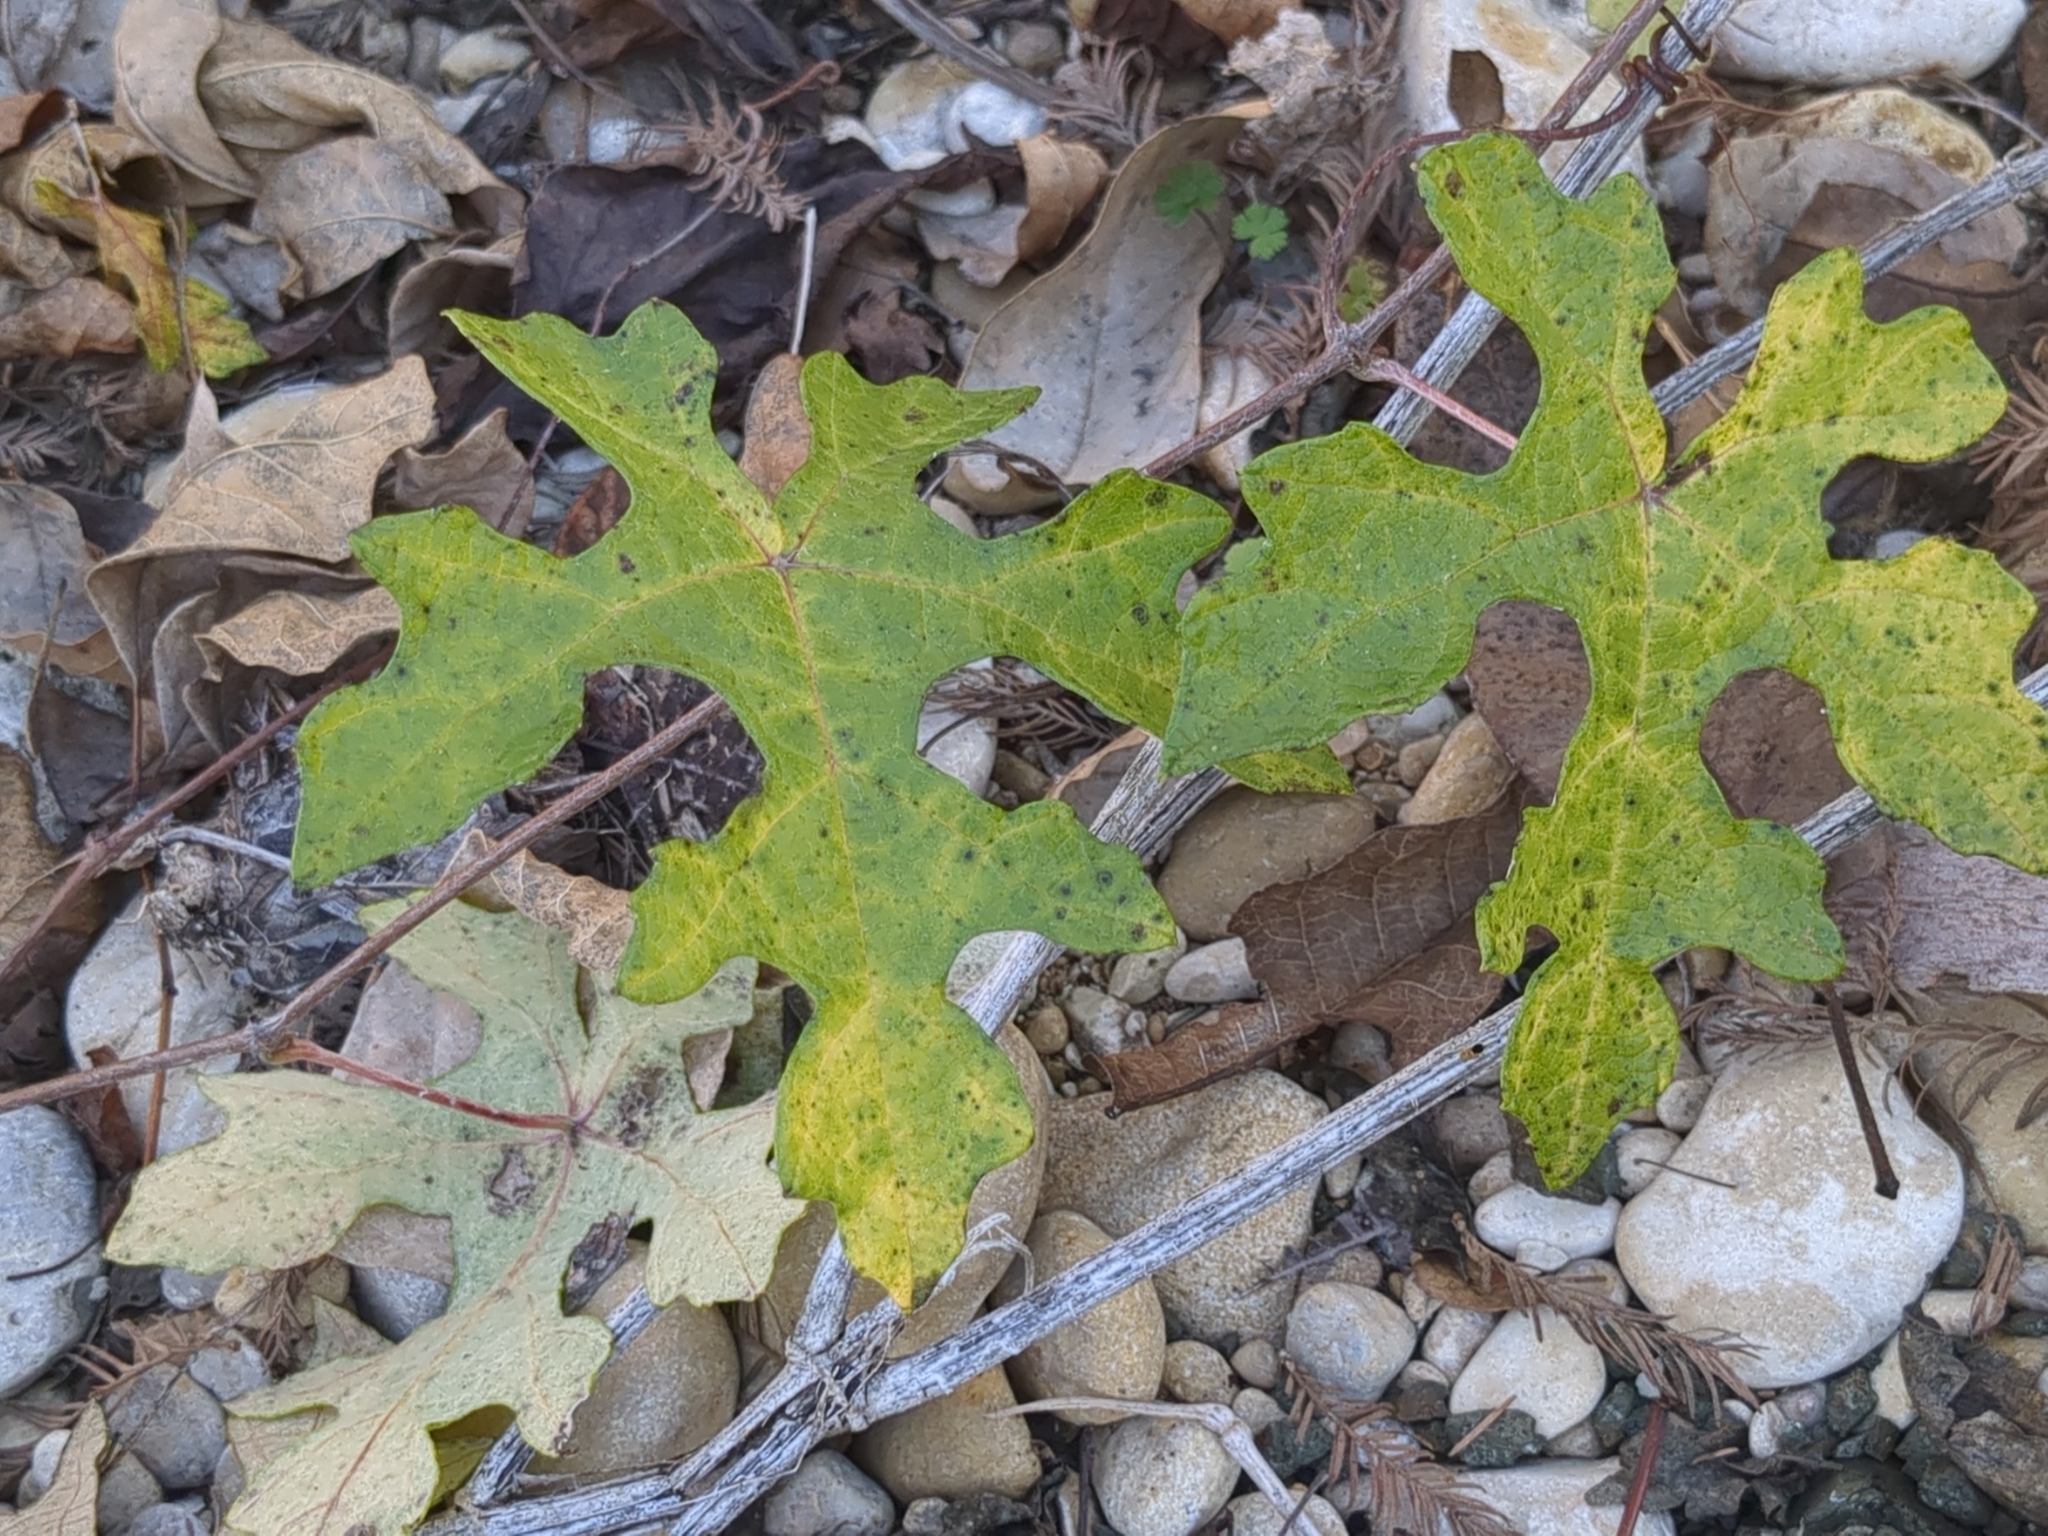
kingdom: Plantae
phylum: Tracheophyta
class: Magnoliopsida
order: Vitales
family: Vitaceae
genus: Vitis
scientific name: Vitis mustangensis
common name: Mustang grape
